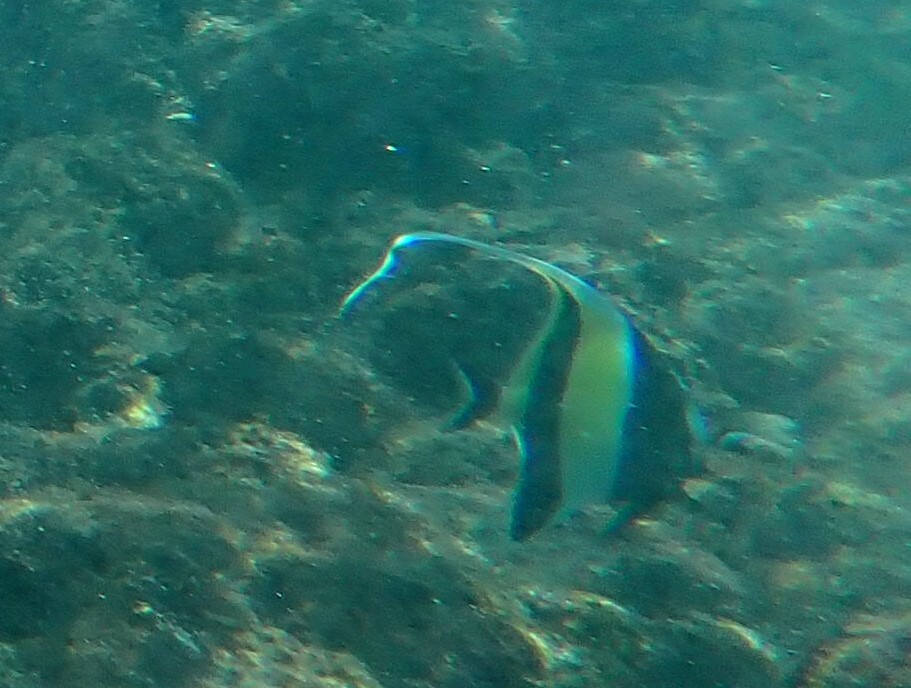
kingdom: Animalia
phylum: Chordata
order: Perciformes
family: Zanclidae
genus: Zanclus
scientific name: Zanclus cornutus
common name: Moorish idol
